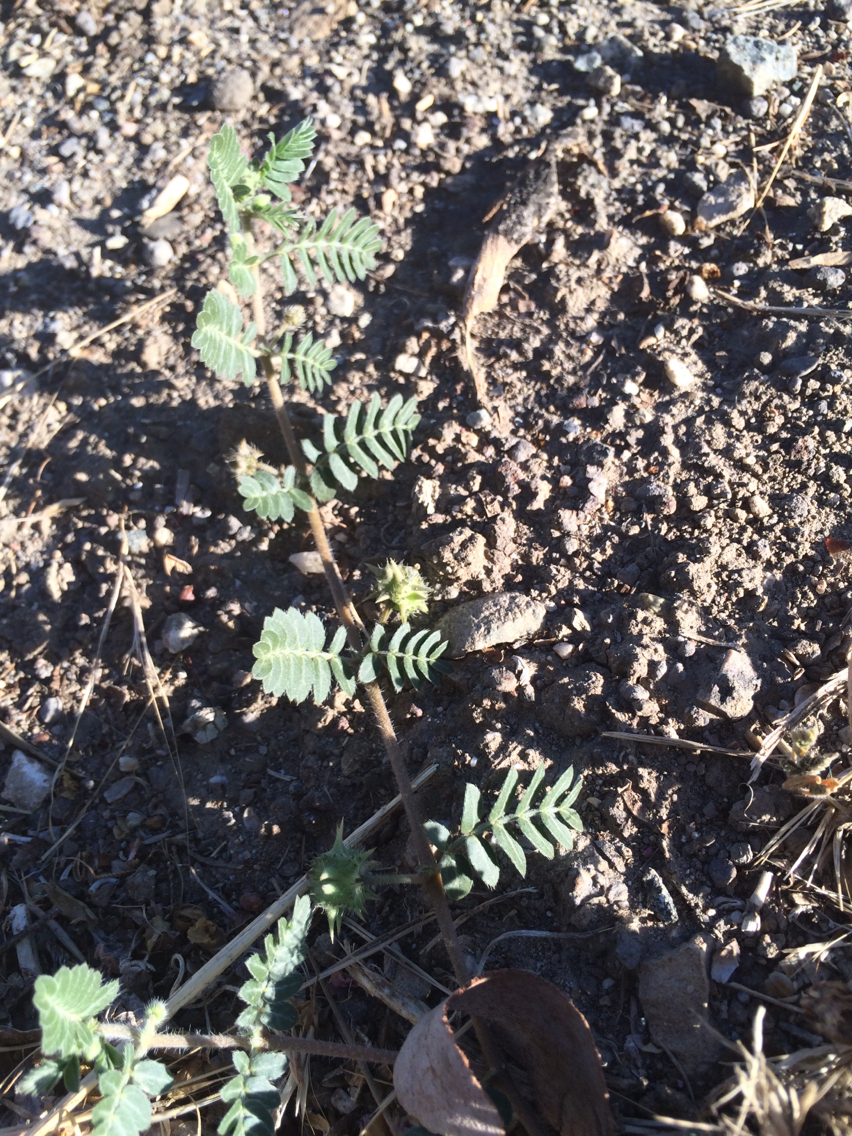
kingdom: Plantae
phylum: Tracheophyta
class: Magnoliopsida
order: Zygophyllales
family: Zygophyllaceae
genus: Tribulus
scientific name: Tribulus terrestris
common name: Puncturevine
